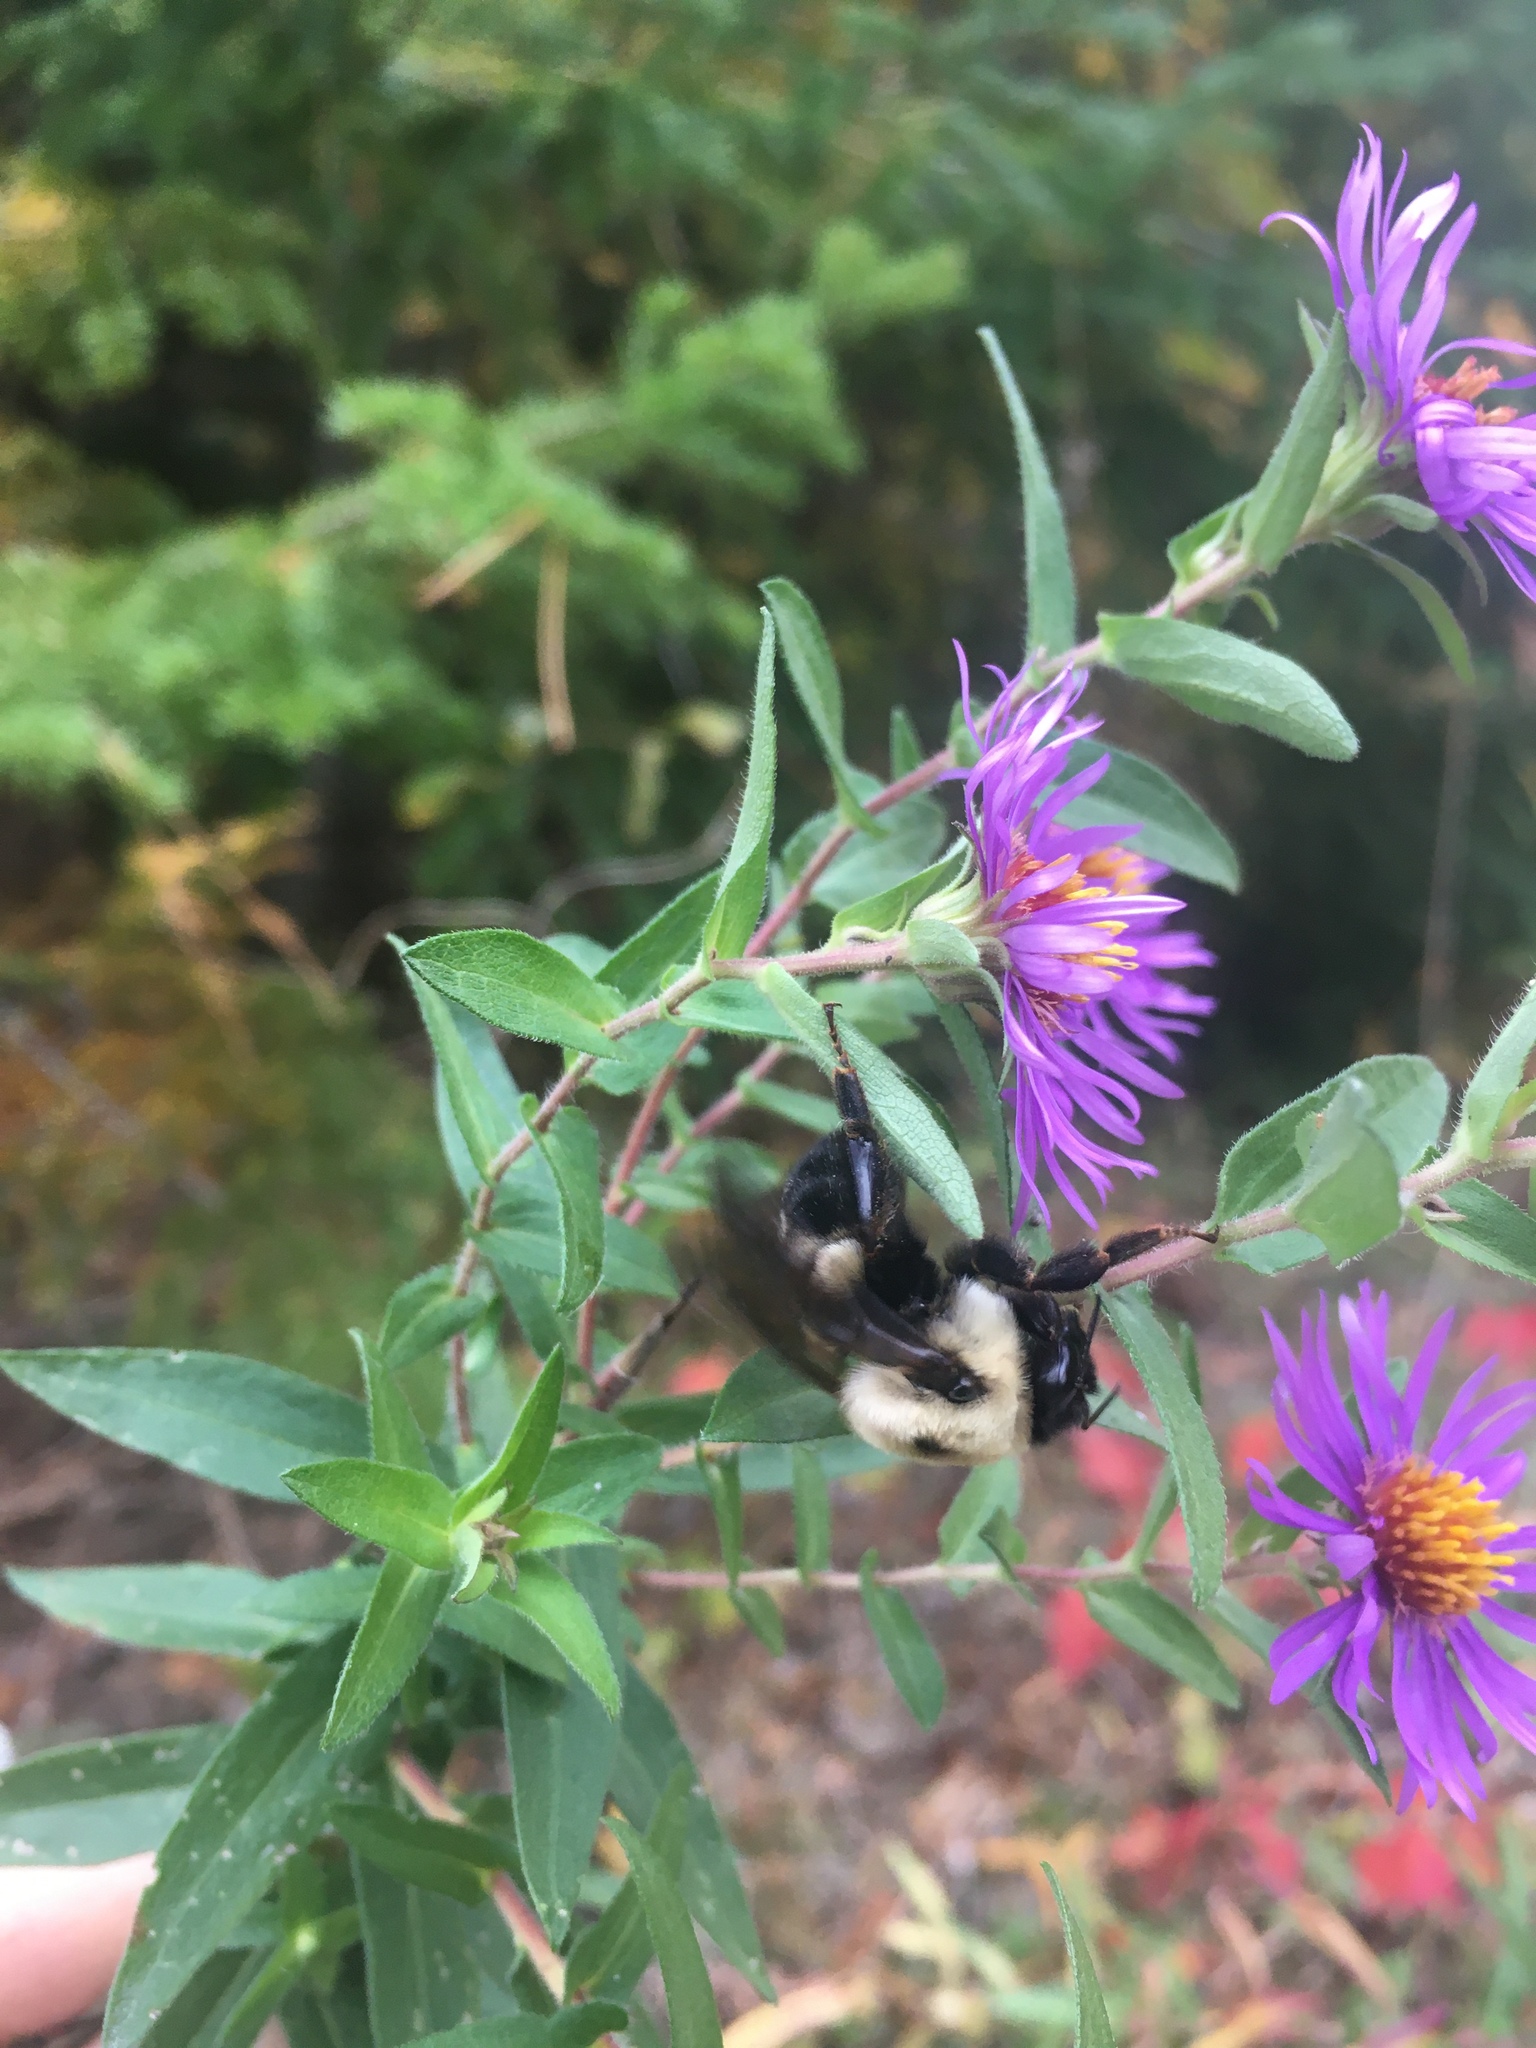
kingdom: Animalia
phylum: Arthropoda
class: Insecta
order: Hymenoptera
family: Apidae
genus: Bombus
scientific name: Bombus impatiens
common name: Common eastern bumble bee
